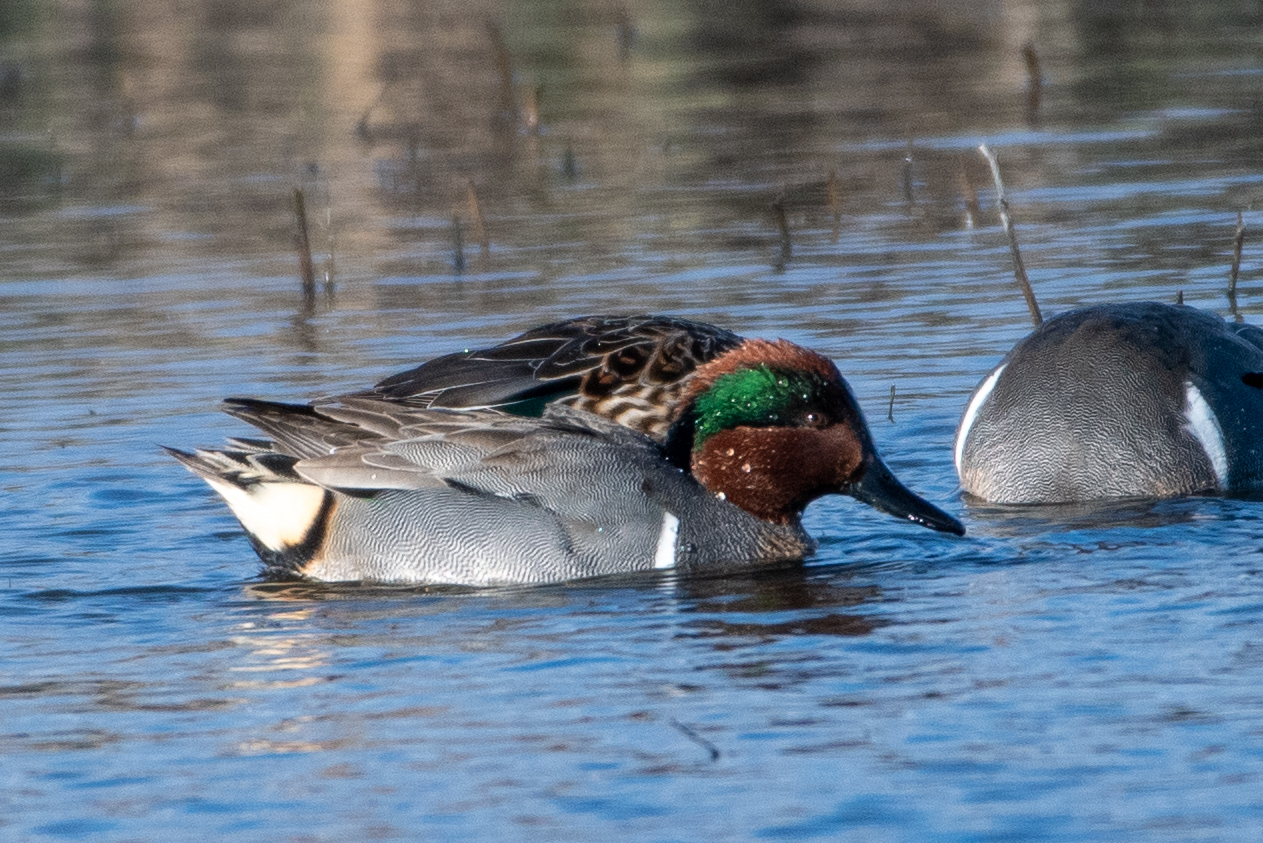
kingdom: Animalia
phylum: Chordata
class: Aves
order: Anseriformes
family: Anatidae
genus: Anas
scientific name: Anas crecca
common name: Eurasian teal
